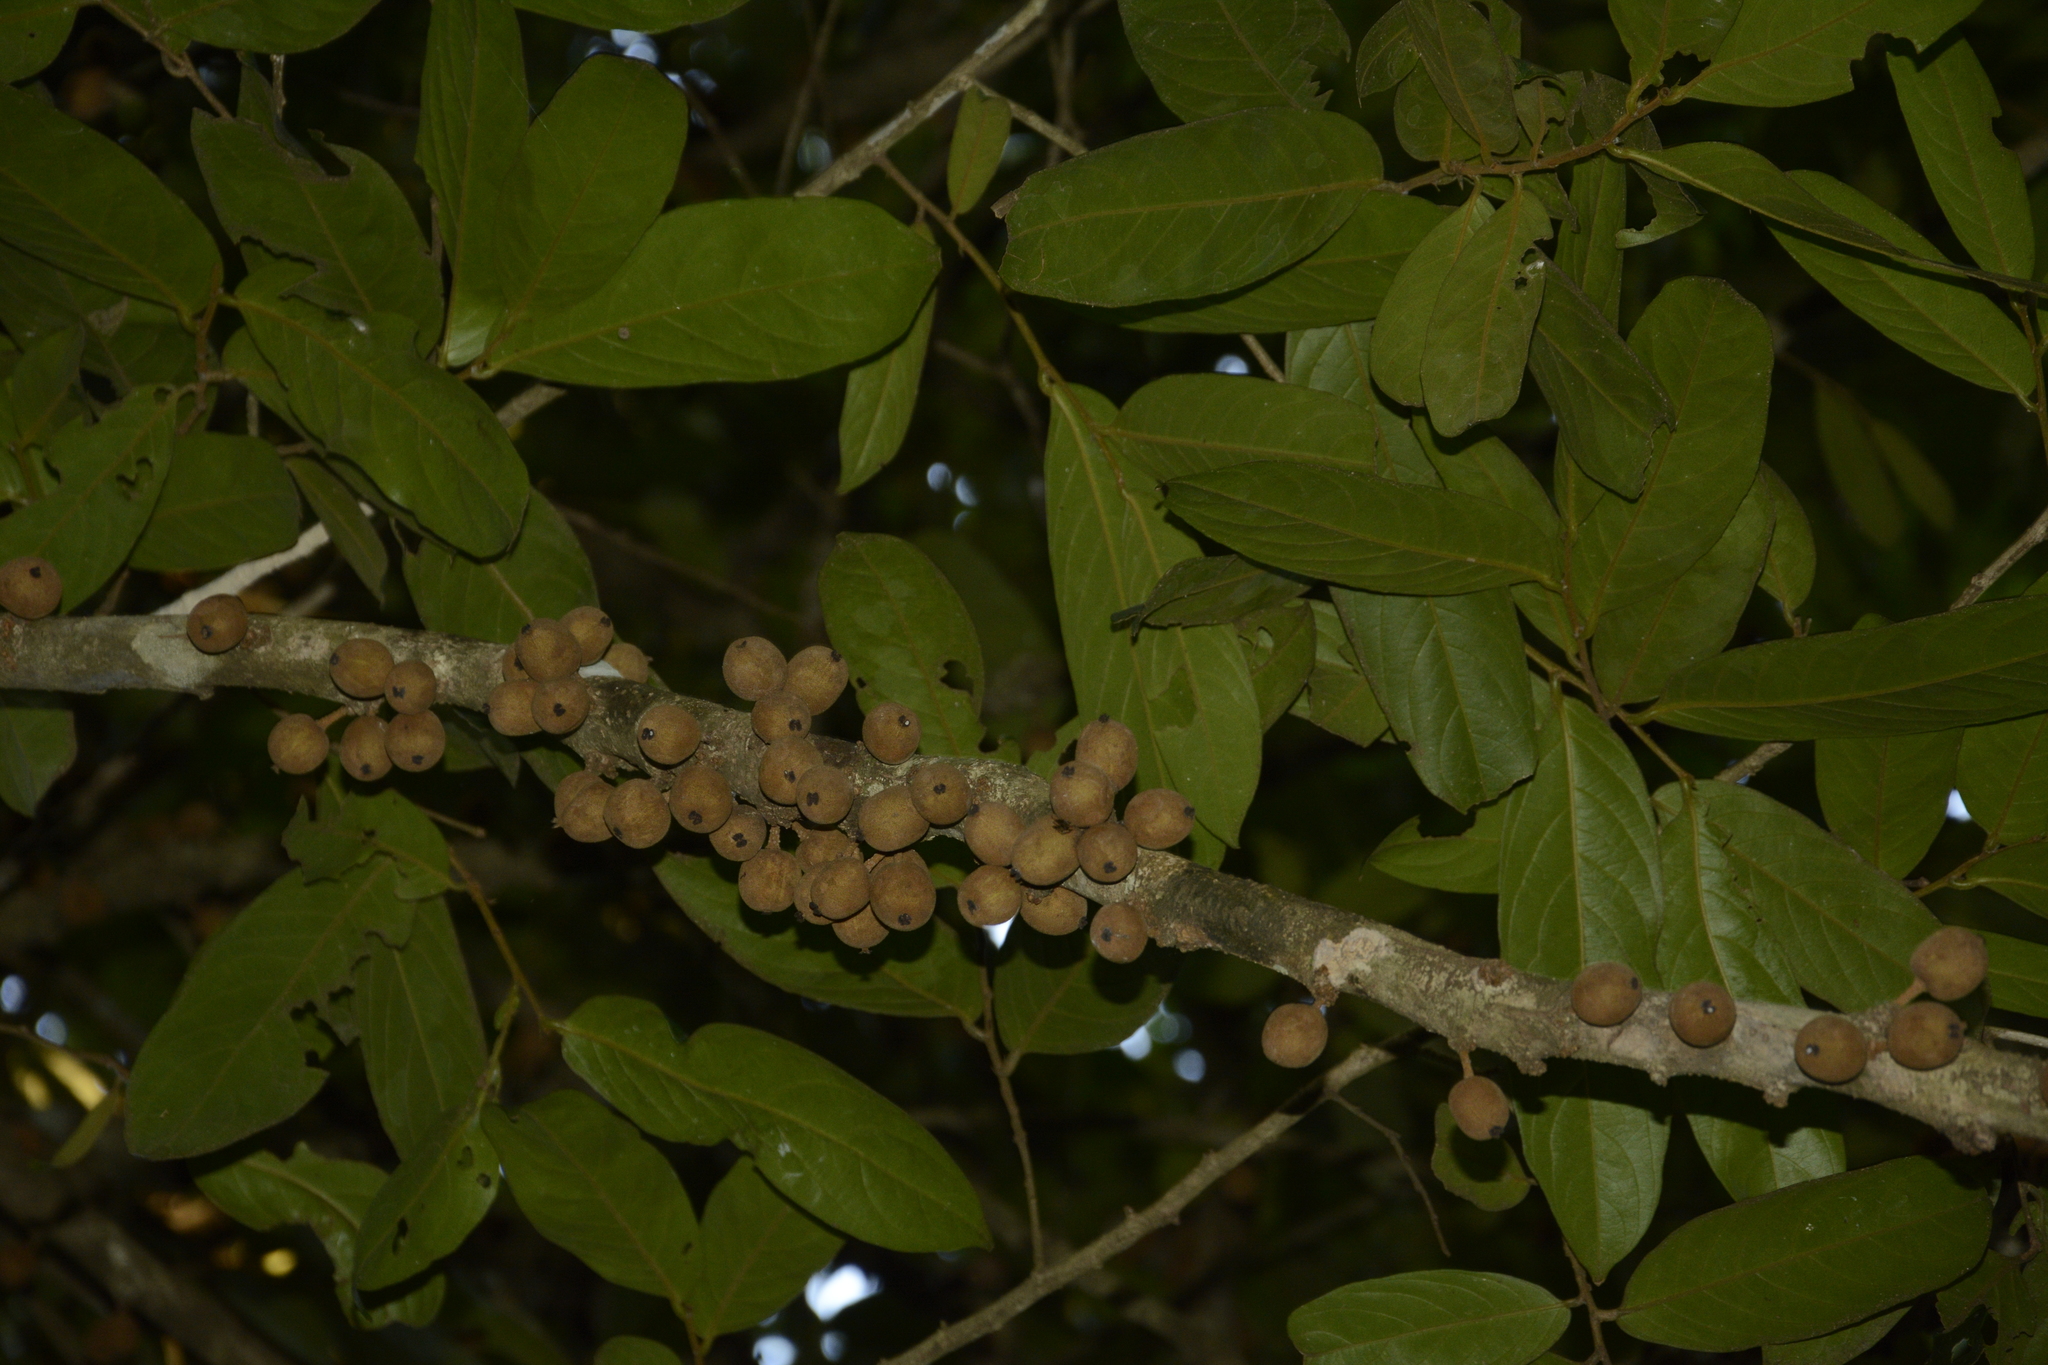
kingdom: Plantae
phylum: Tracheophyta
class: Magnoliopsida
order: Malpighiales
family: Putranjivaceae
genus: Drypetes
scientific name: Drypetes malabarica
